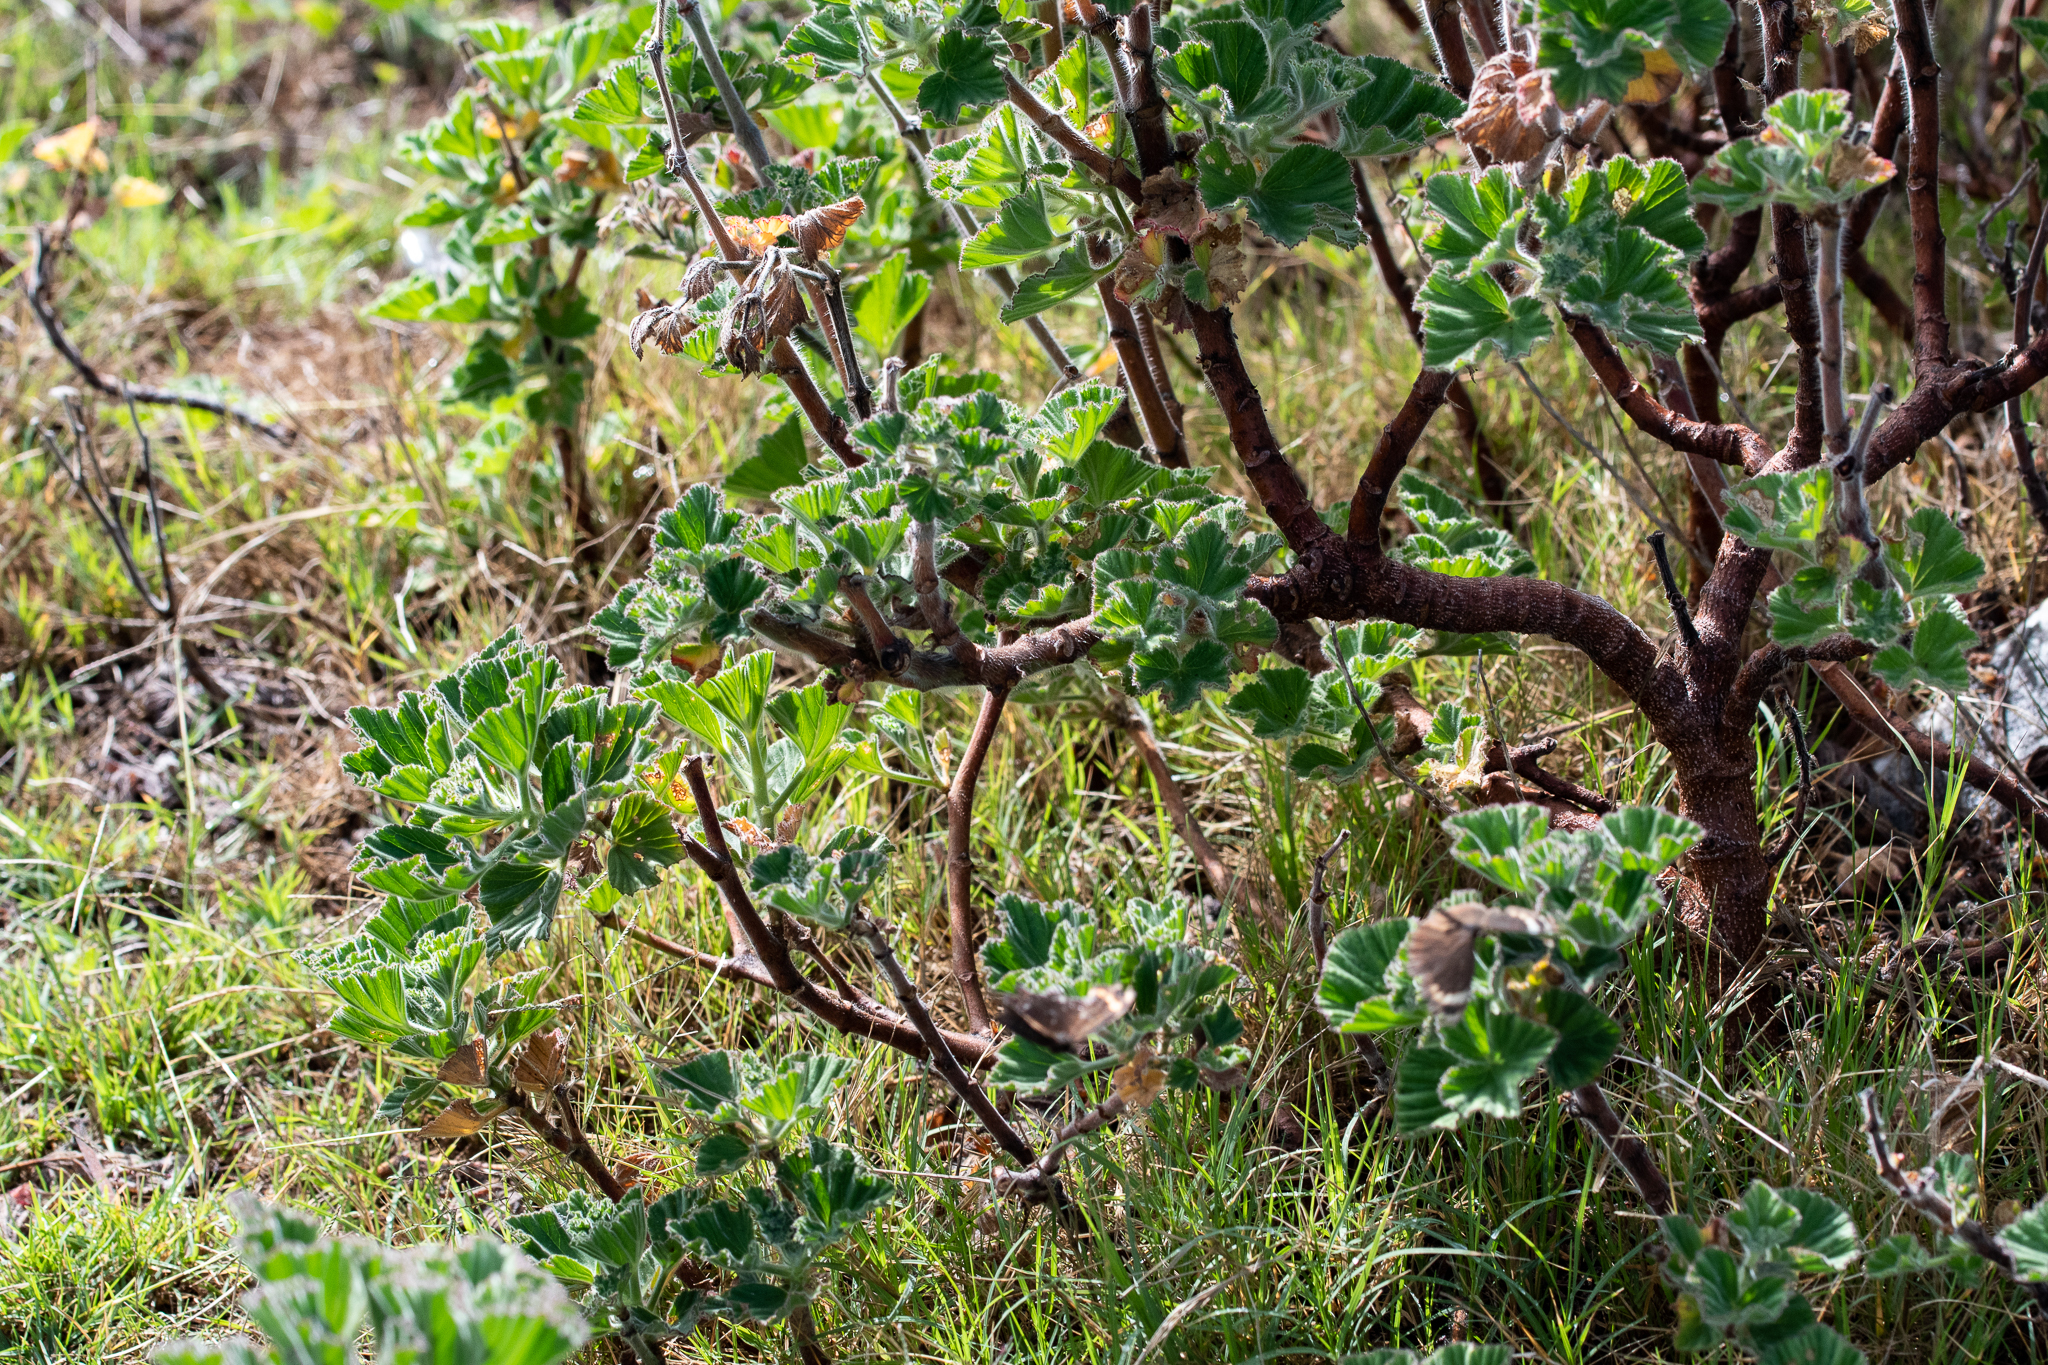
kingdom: Plantae
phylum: Tracheophyta
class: Magnoliopsida
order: Geraniales
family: Geraniaceae
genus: Pelargonium
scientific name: Pelargonium cucullatum
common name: Tree pelargonium
